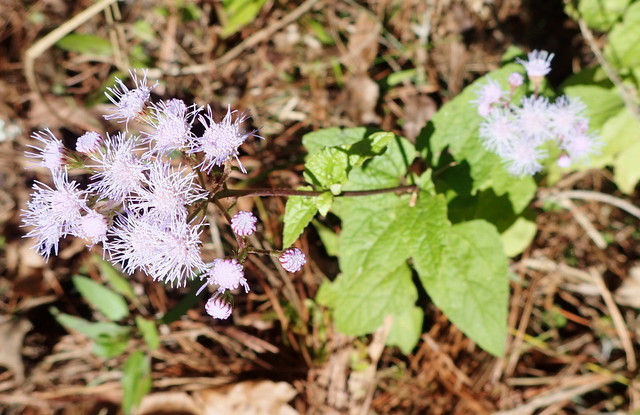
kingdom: Plantae
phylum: Tracheophyta
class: Magnoliopsida
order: Asterales
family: Asteraceae
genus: Conoclinium
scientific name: Conoclinium coelestinum
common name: Blue mistflower
